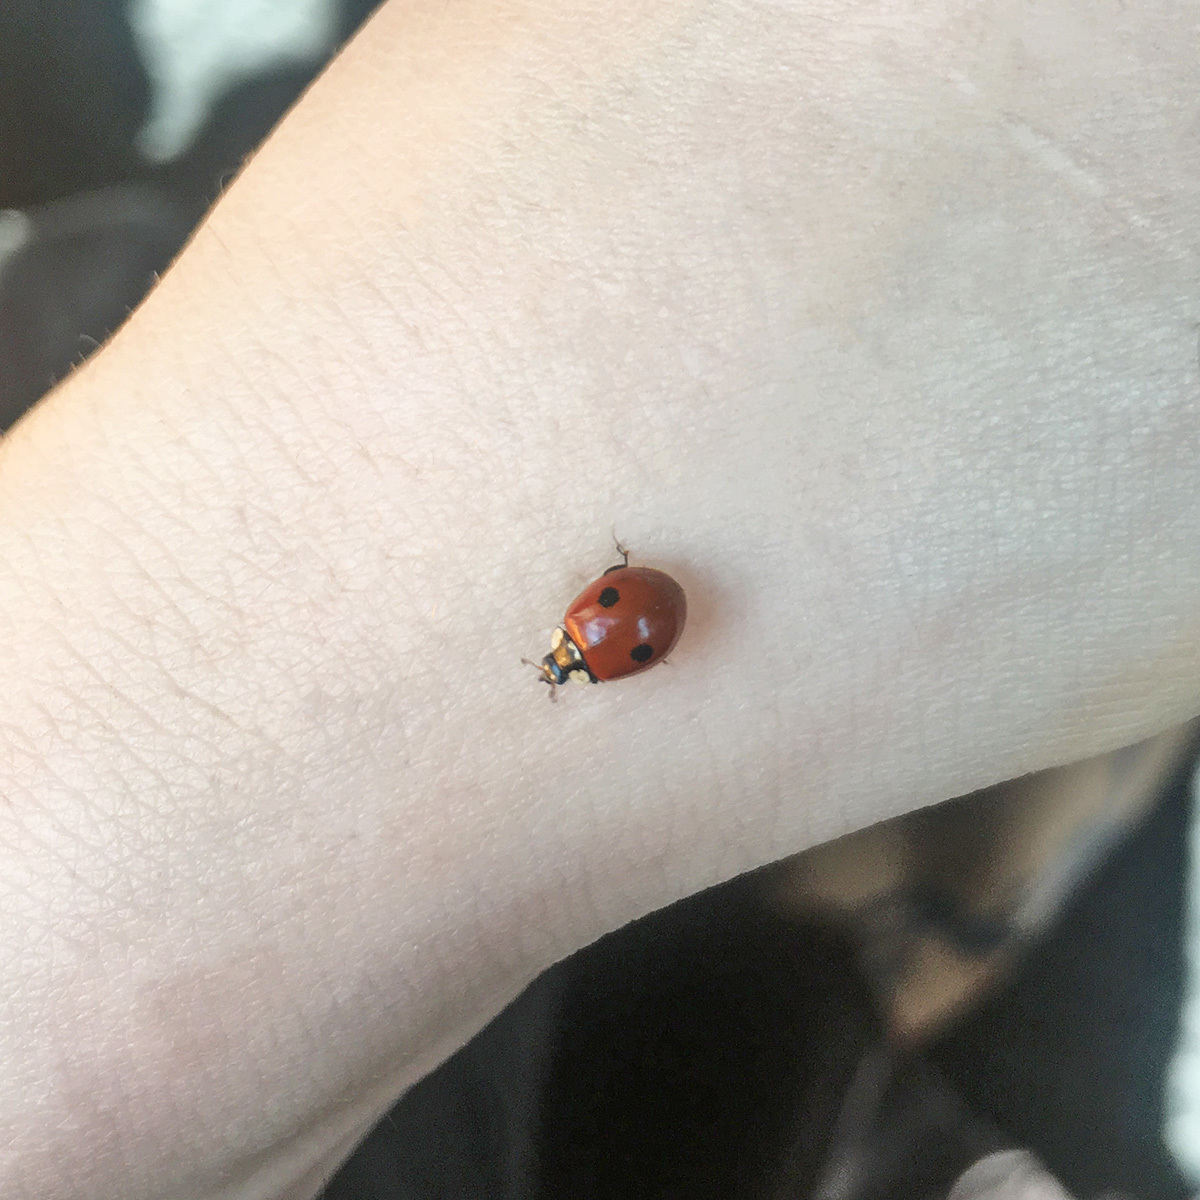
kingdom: Animalia
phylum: Arthropoda
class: Insecta
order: Coleoptera
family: Coccinellidae
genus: Adalia
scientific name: Adalia bipunctata
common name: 2-spot ladybird
